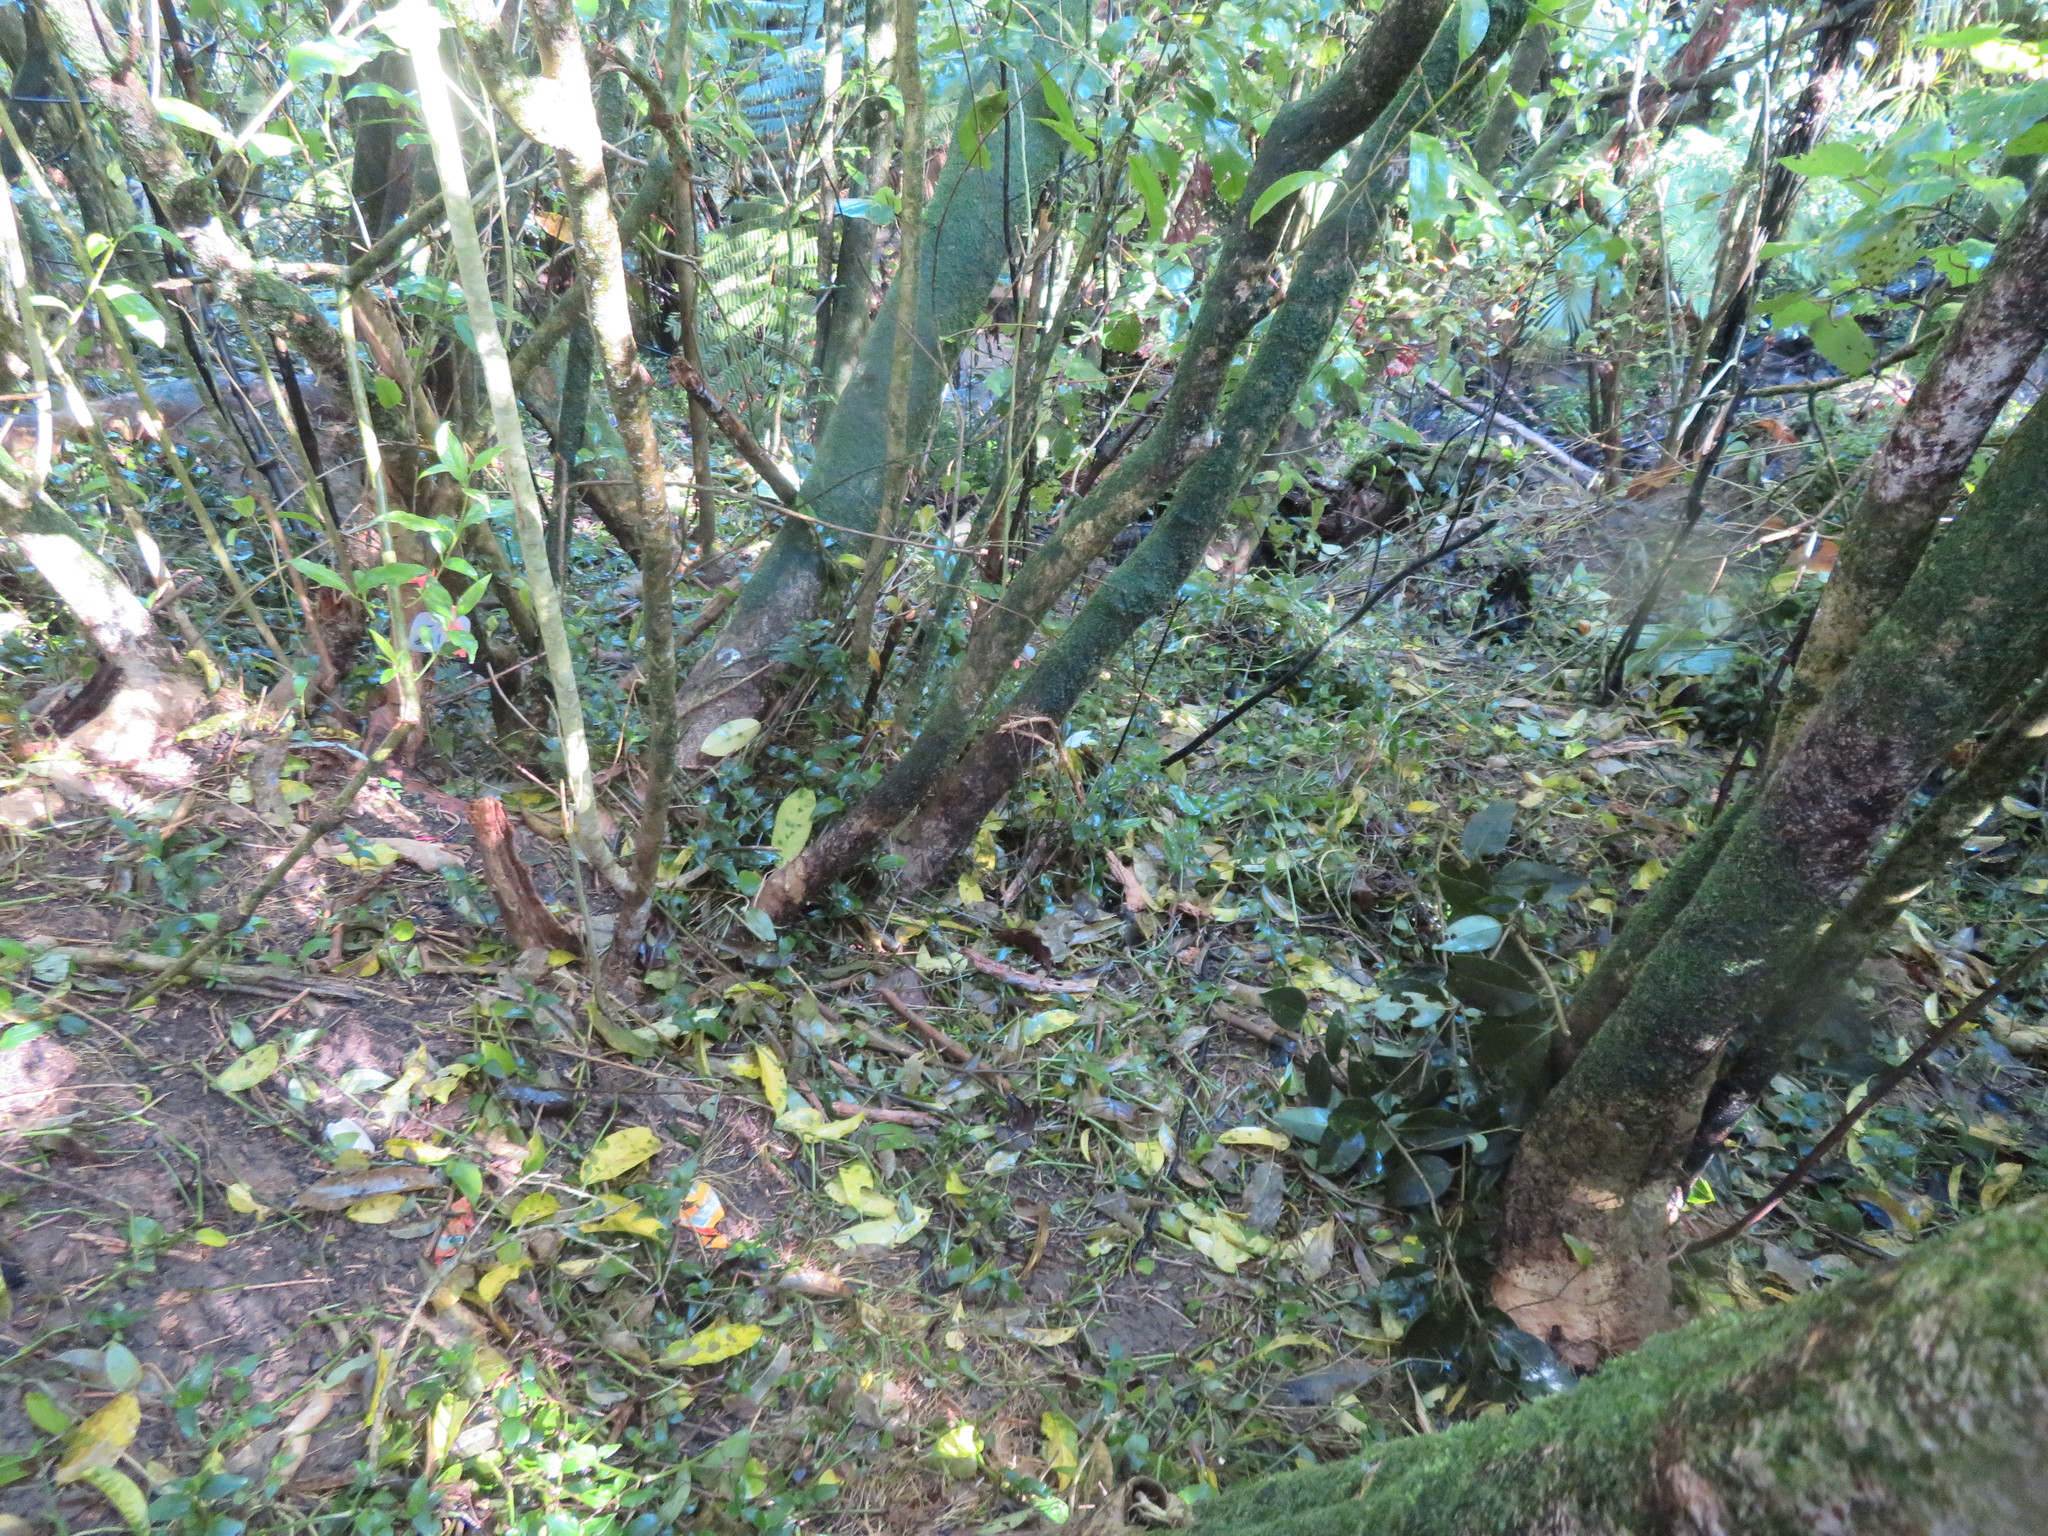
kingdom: Plantae
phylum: Tracheophyta
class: Liliopsida
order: Commelinales
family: Commelinaceae
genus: Tradescantia
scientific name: Tradescantia fluminensis
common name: Wandering-jew
